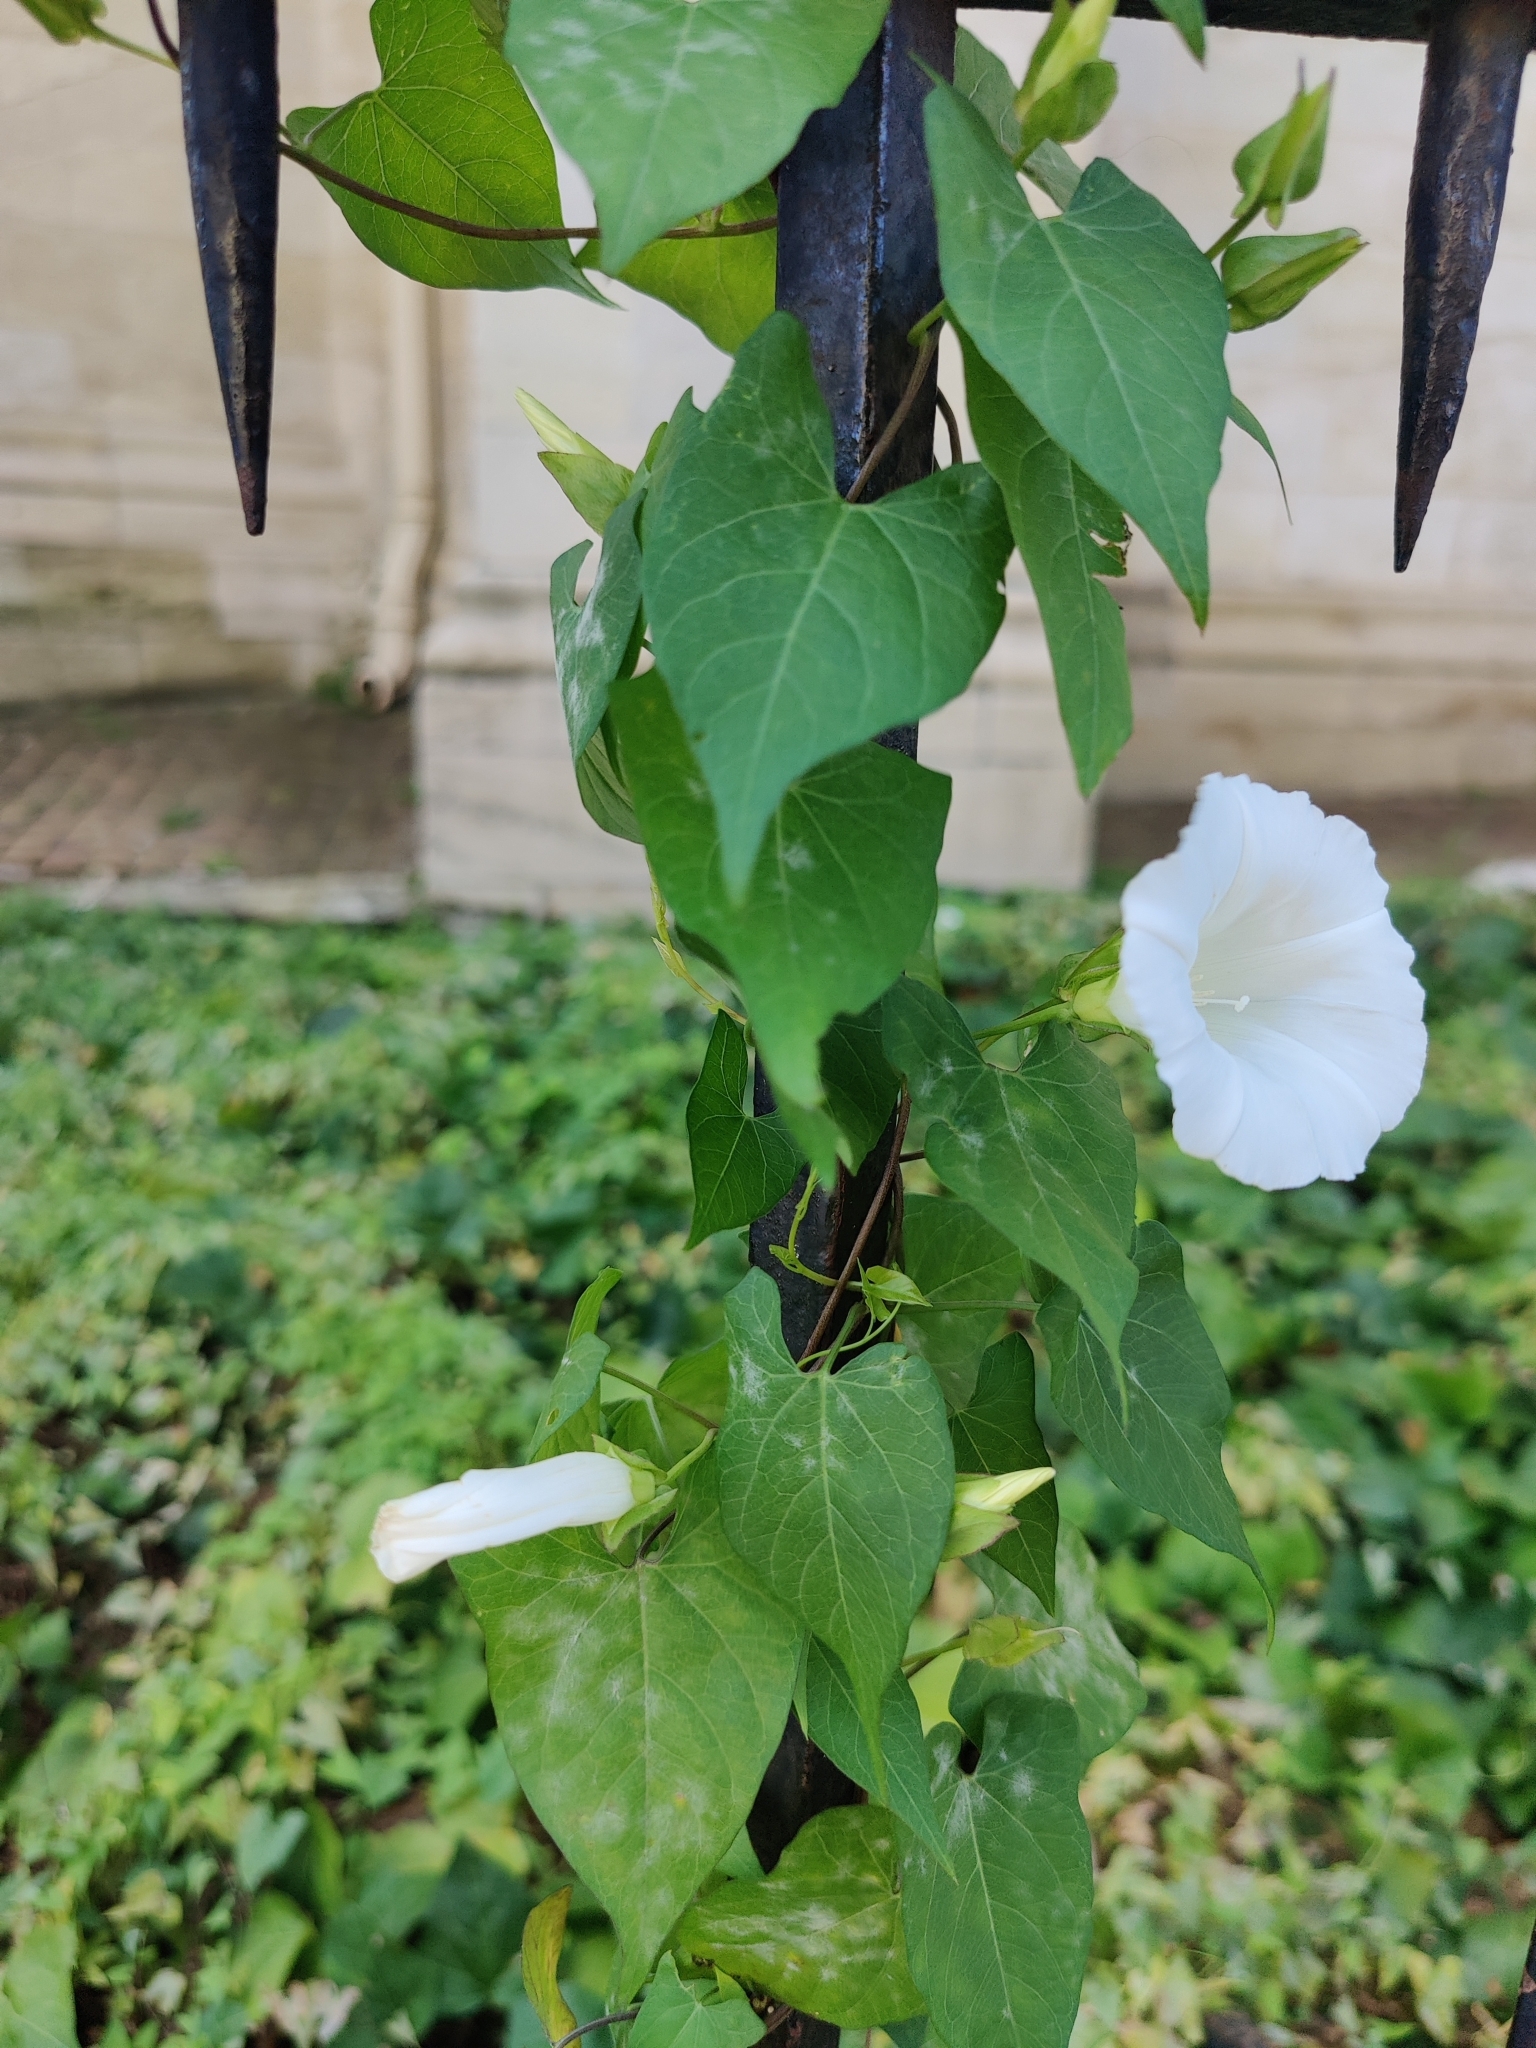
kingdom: Plantae
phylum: Tracheophyta
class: Magnoliopsida
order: Solanales
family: Convolvulaceae
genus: Calystegia
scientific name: Calystegia sepium
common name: Hedge bindweed
